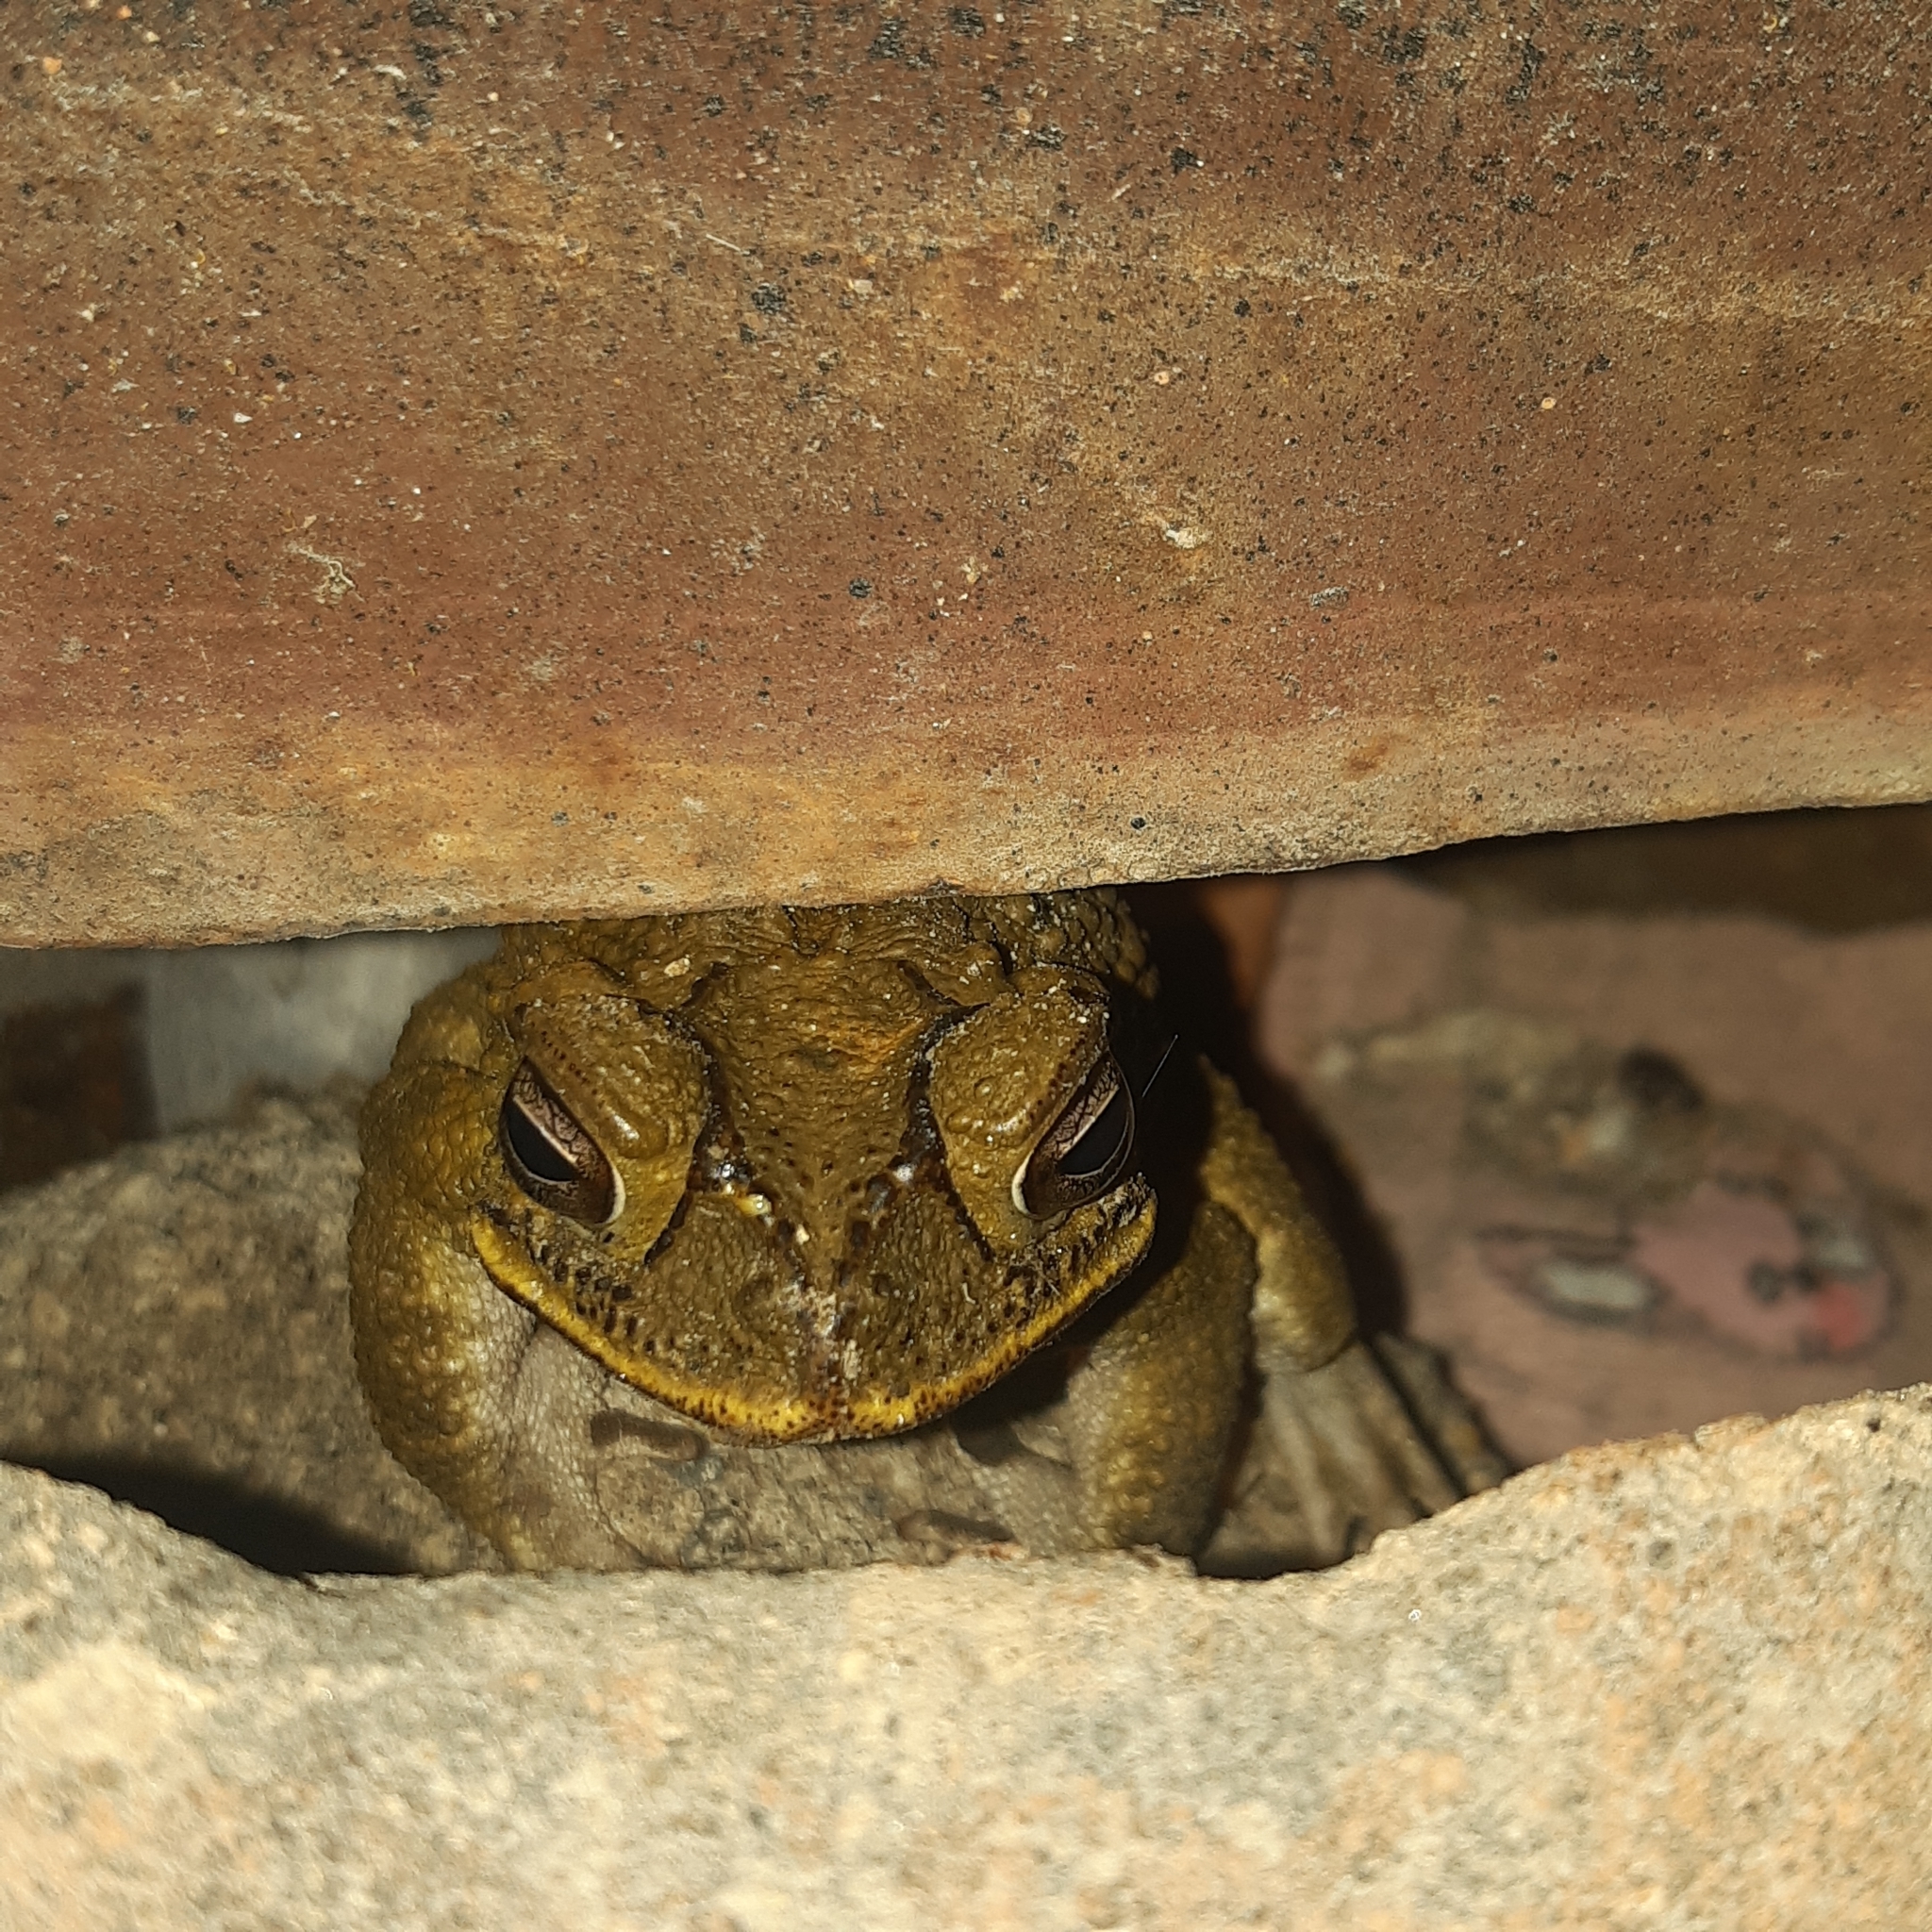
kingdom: Animalia
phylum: Chordata
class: Amphibia
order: Anura
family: Bufonidae
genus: Rhinella
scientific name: Rhinella horribilis
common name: Mesoamerican cane toad
